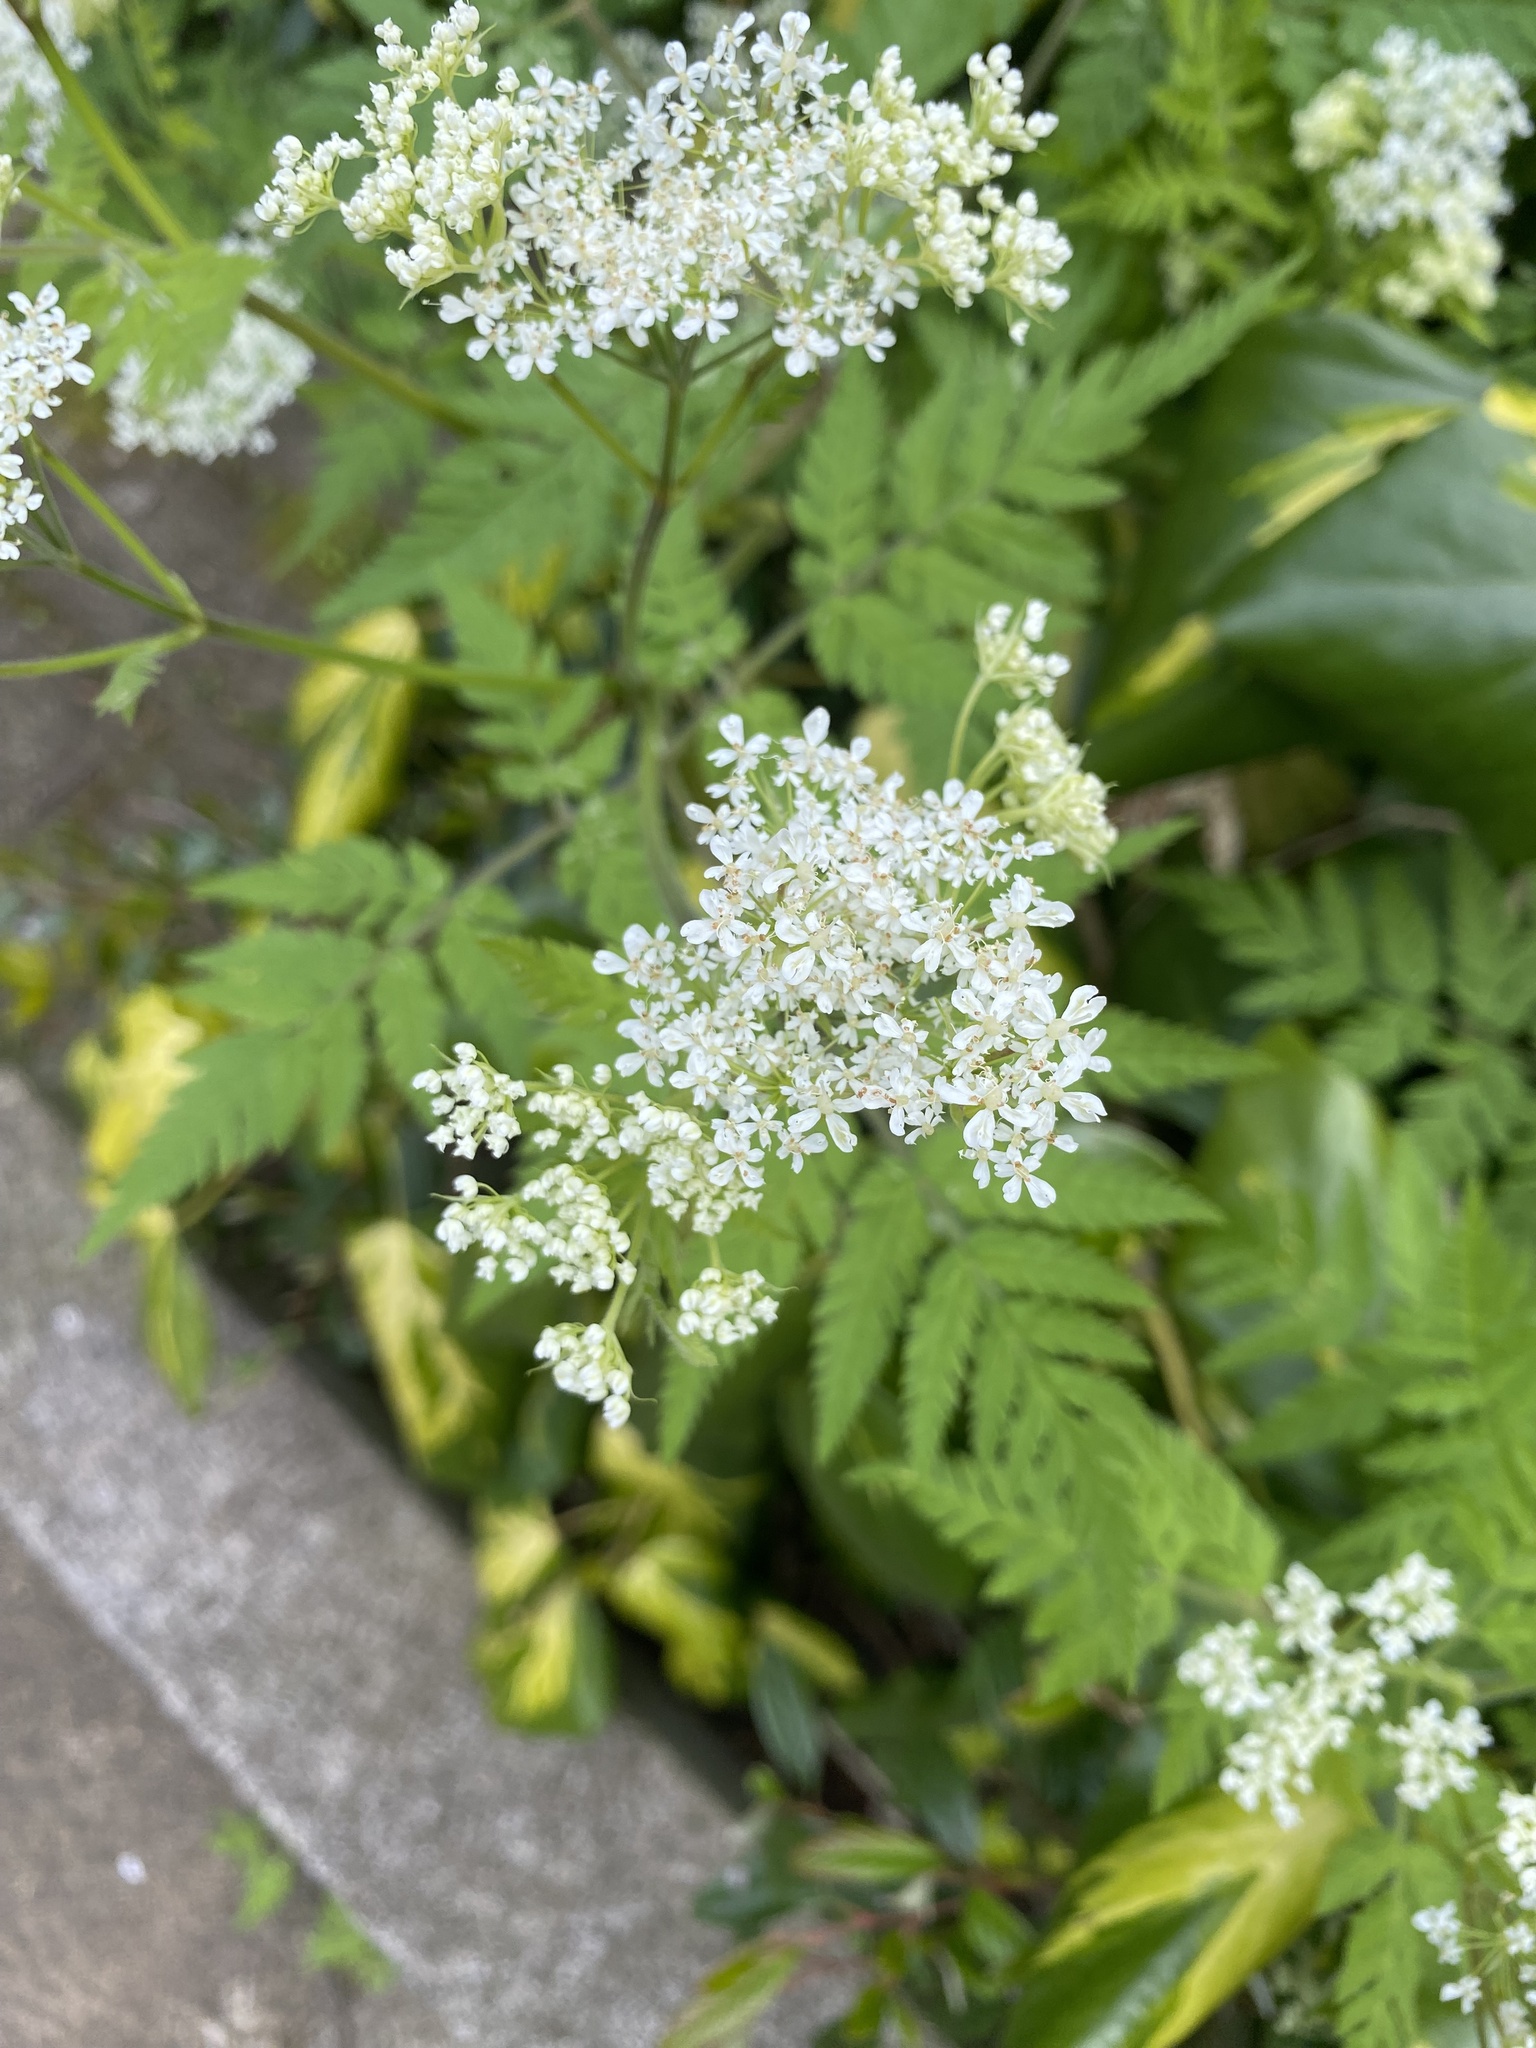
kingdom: Plantae
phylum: Tracheophyta
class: Magnoliopsida
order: Apiales
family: Apiaceae
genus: Myrrhis
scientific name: Myrrhis odorata
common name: Sweet cicely
